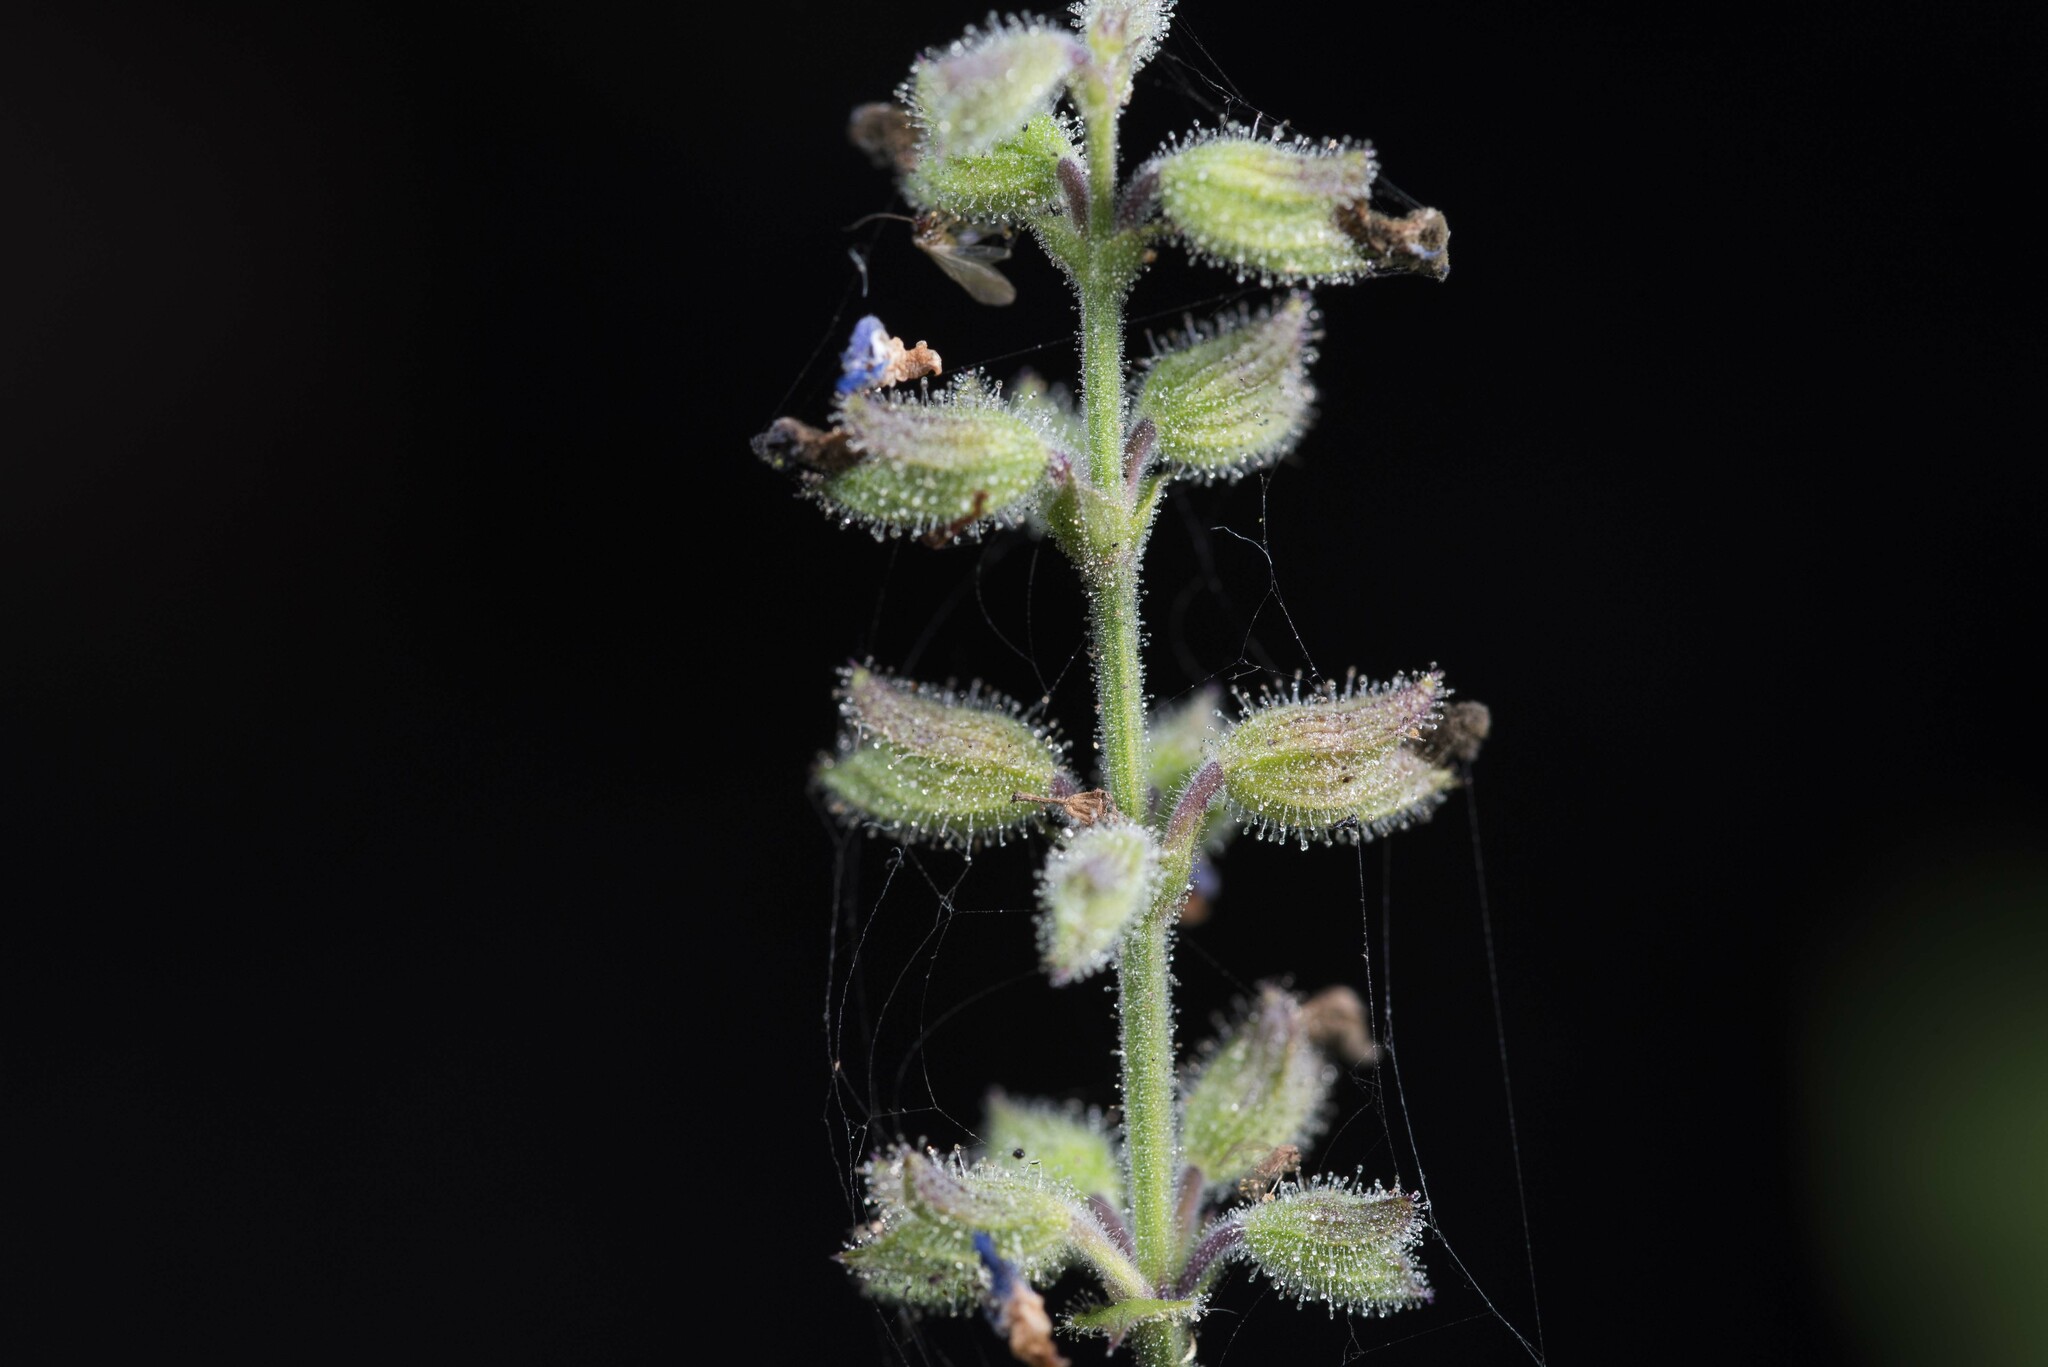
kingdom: Plantae
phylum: Tracheophyta
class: Magnoliopsida
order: Lamiales
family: Lamiaceae
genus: Salvia
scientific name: Salvia occidentalis
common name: West indian sage
